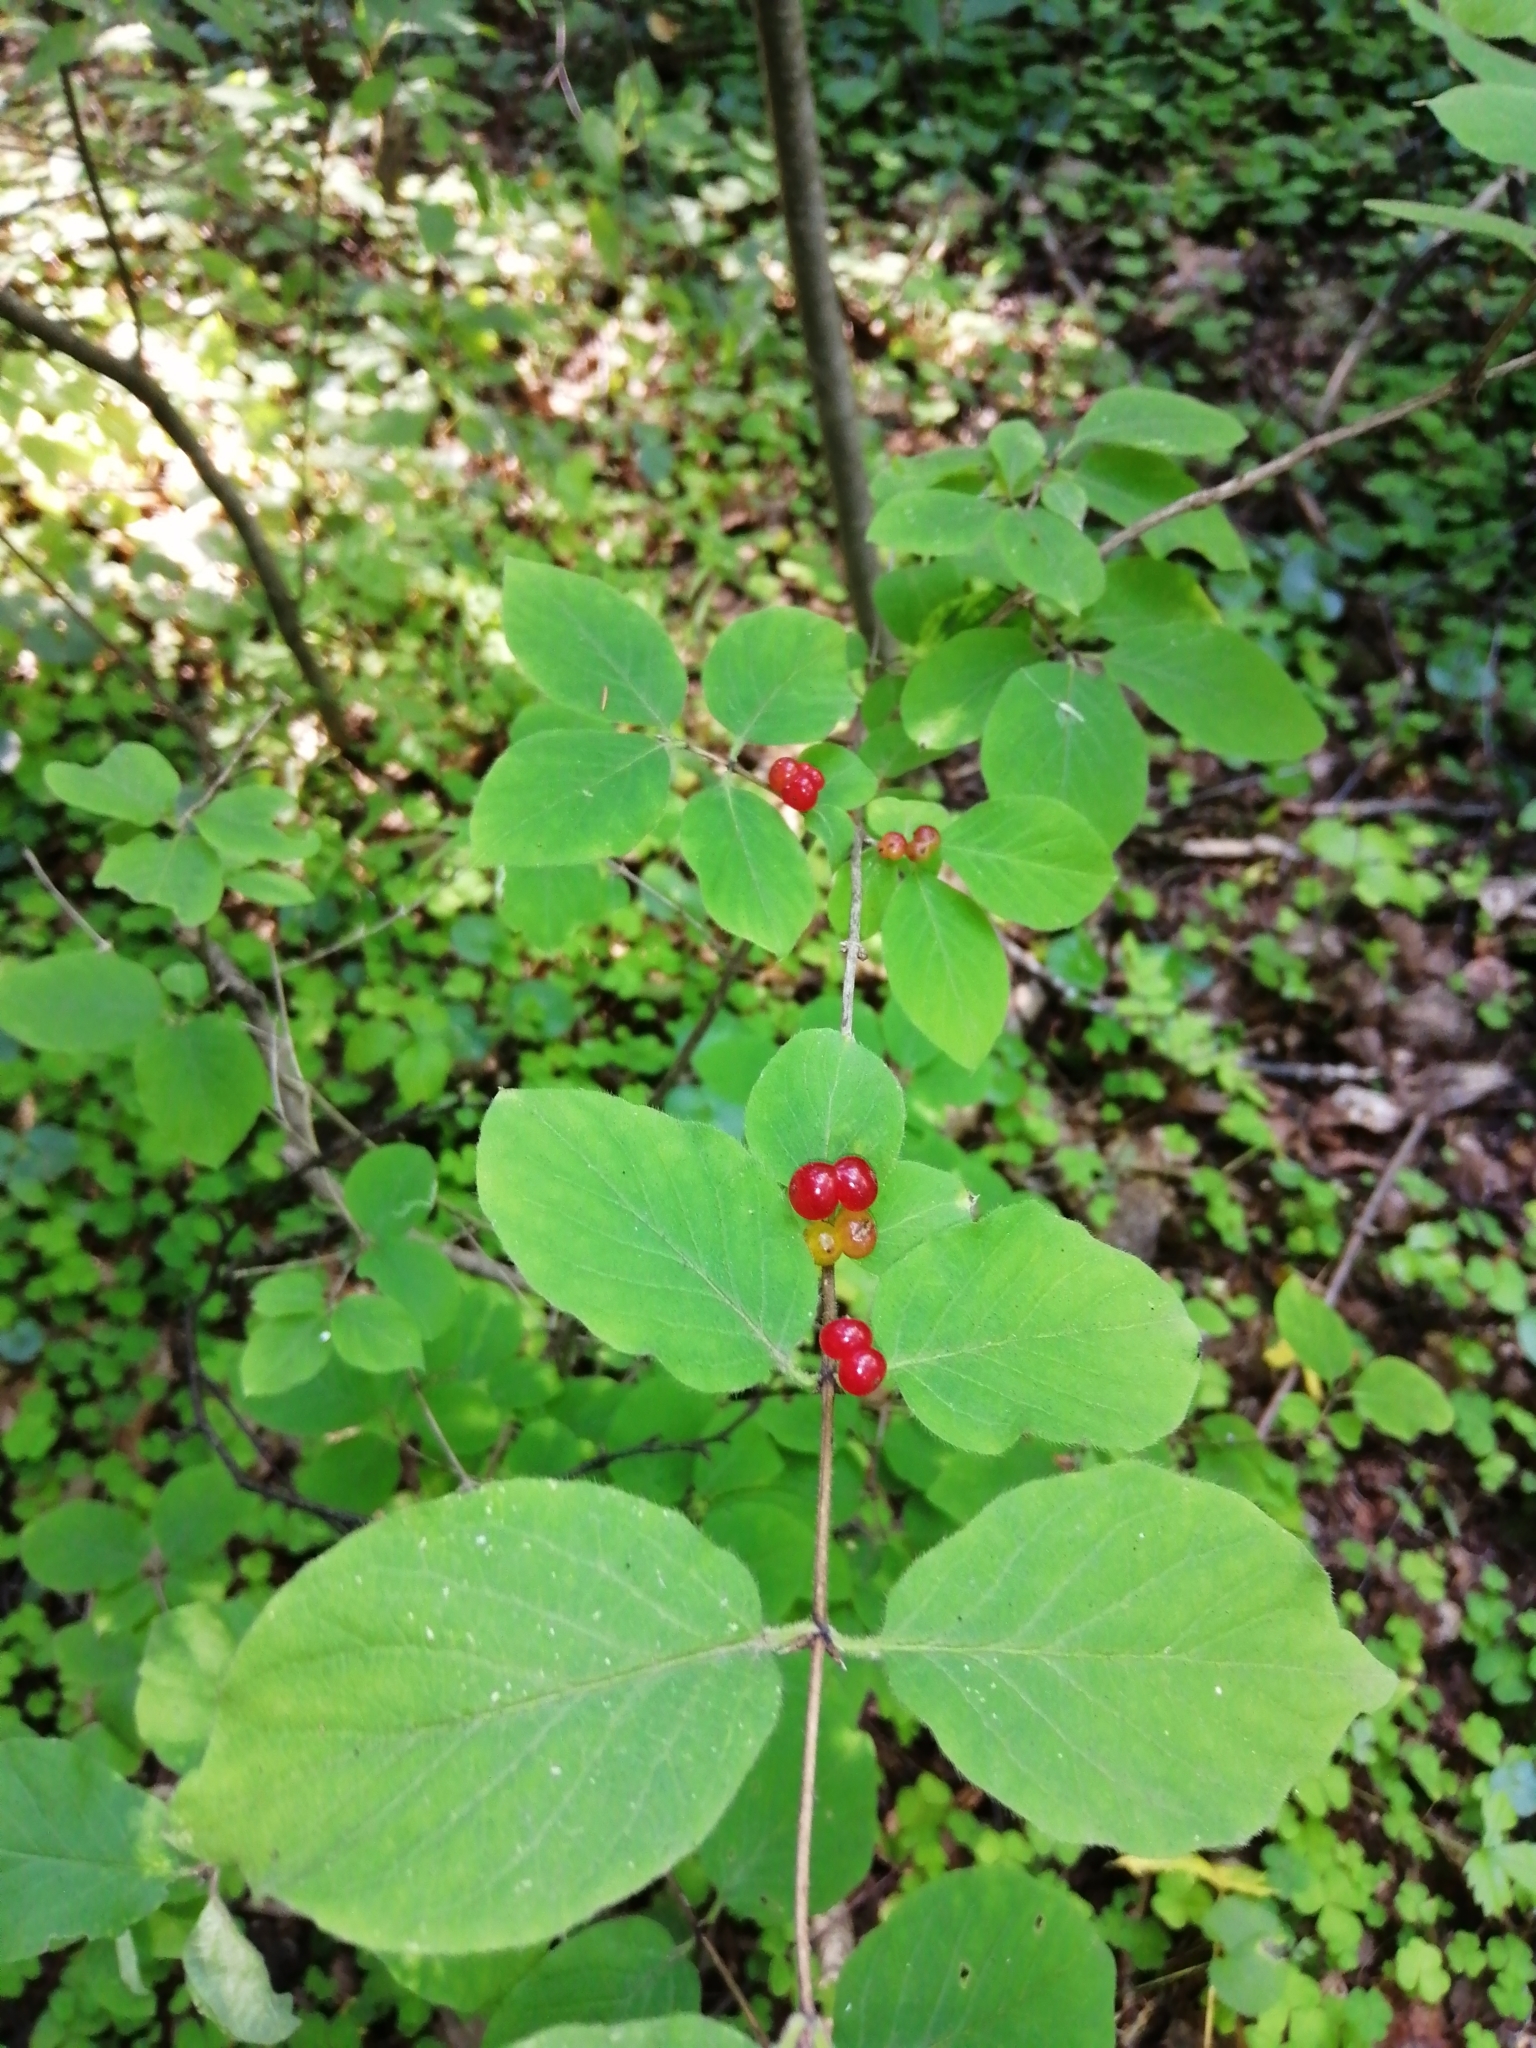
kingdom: Plantae
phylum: Tracheophyta
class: Magnoliopsida
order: Dipsacales
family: Caprifoliaceae
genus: Lonicera
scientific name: Lonicera xylosteum
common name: Fly honeysuckle
